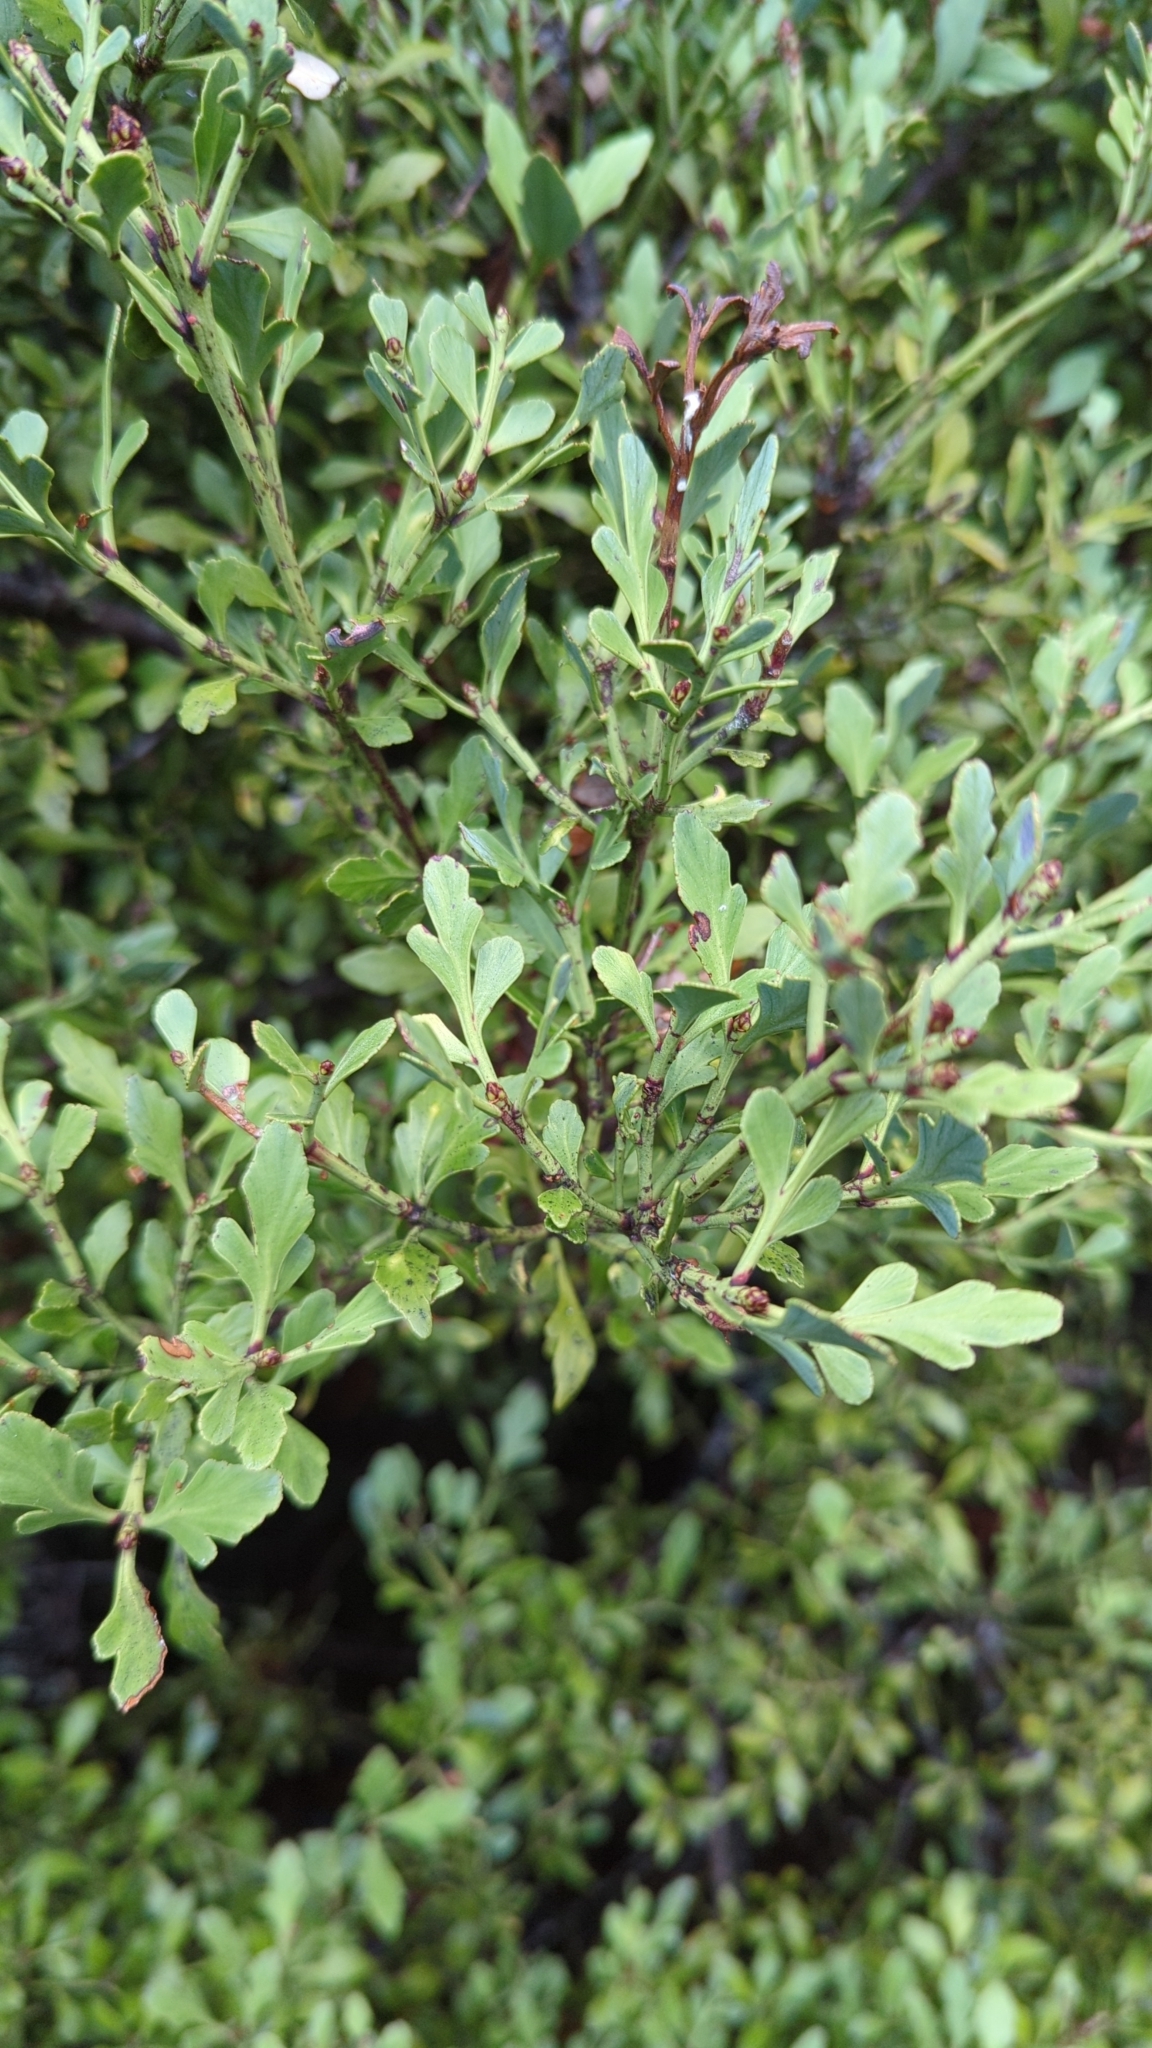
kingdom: Plantae
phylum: Tracheophyta
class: Pinopsida
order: Pinales
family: Phyllocladaceae
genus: Phyllocladus
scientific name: Phyllocladus trichomanoides
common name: Celery pine
